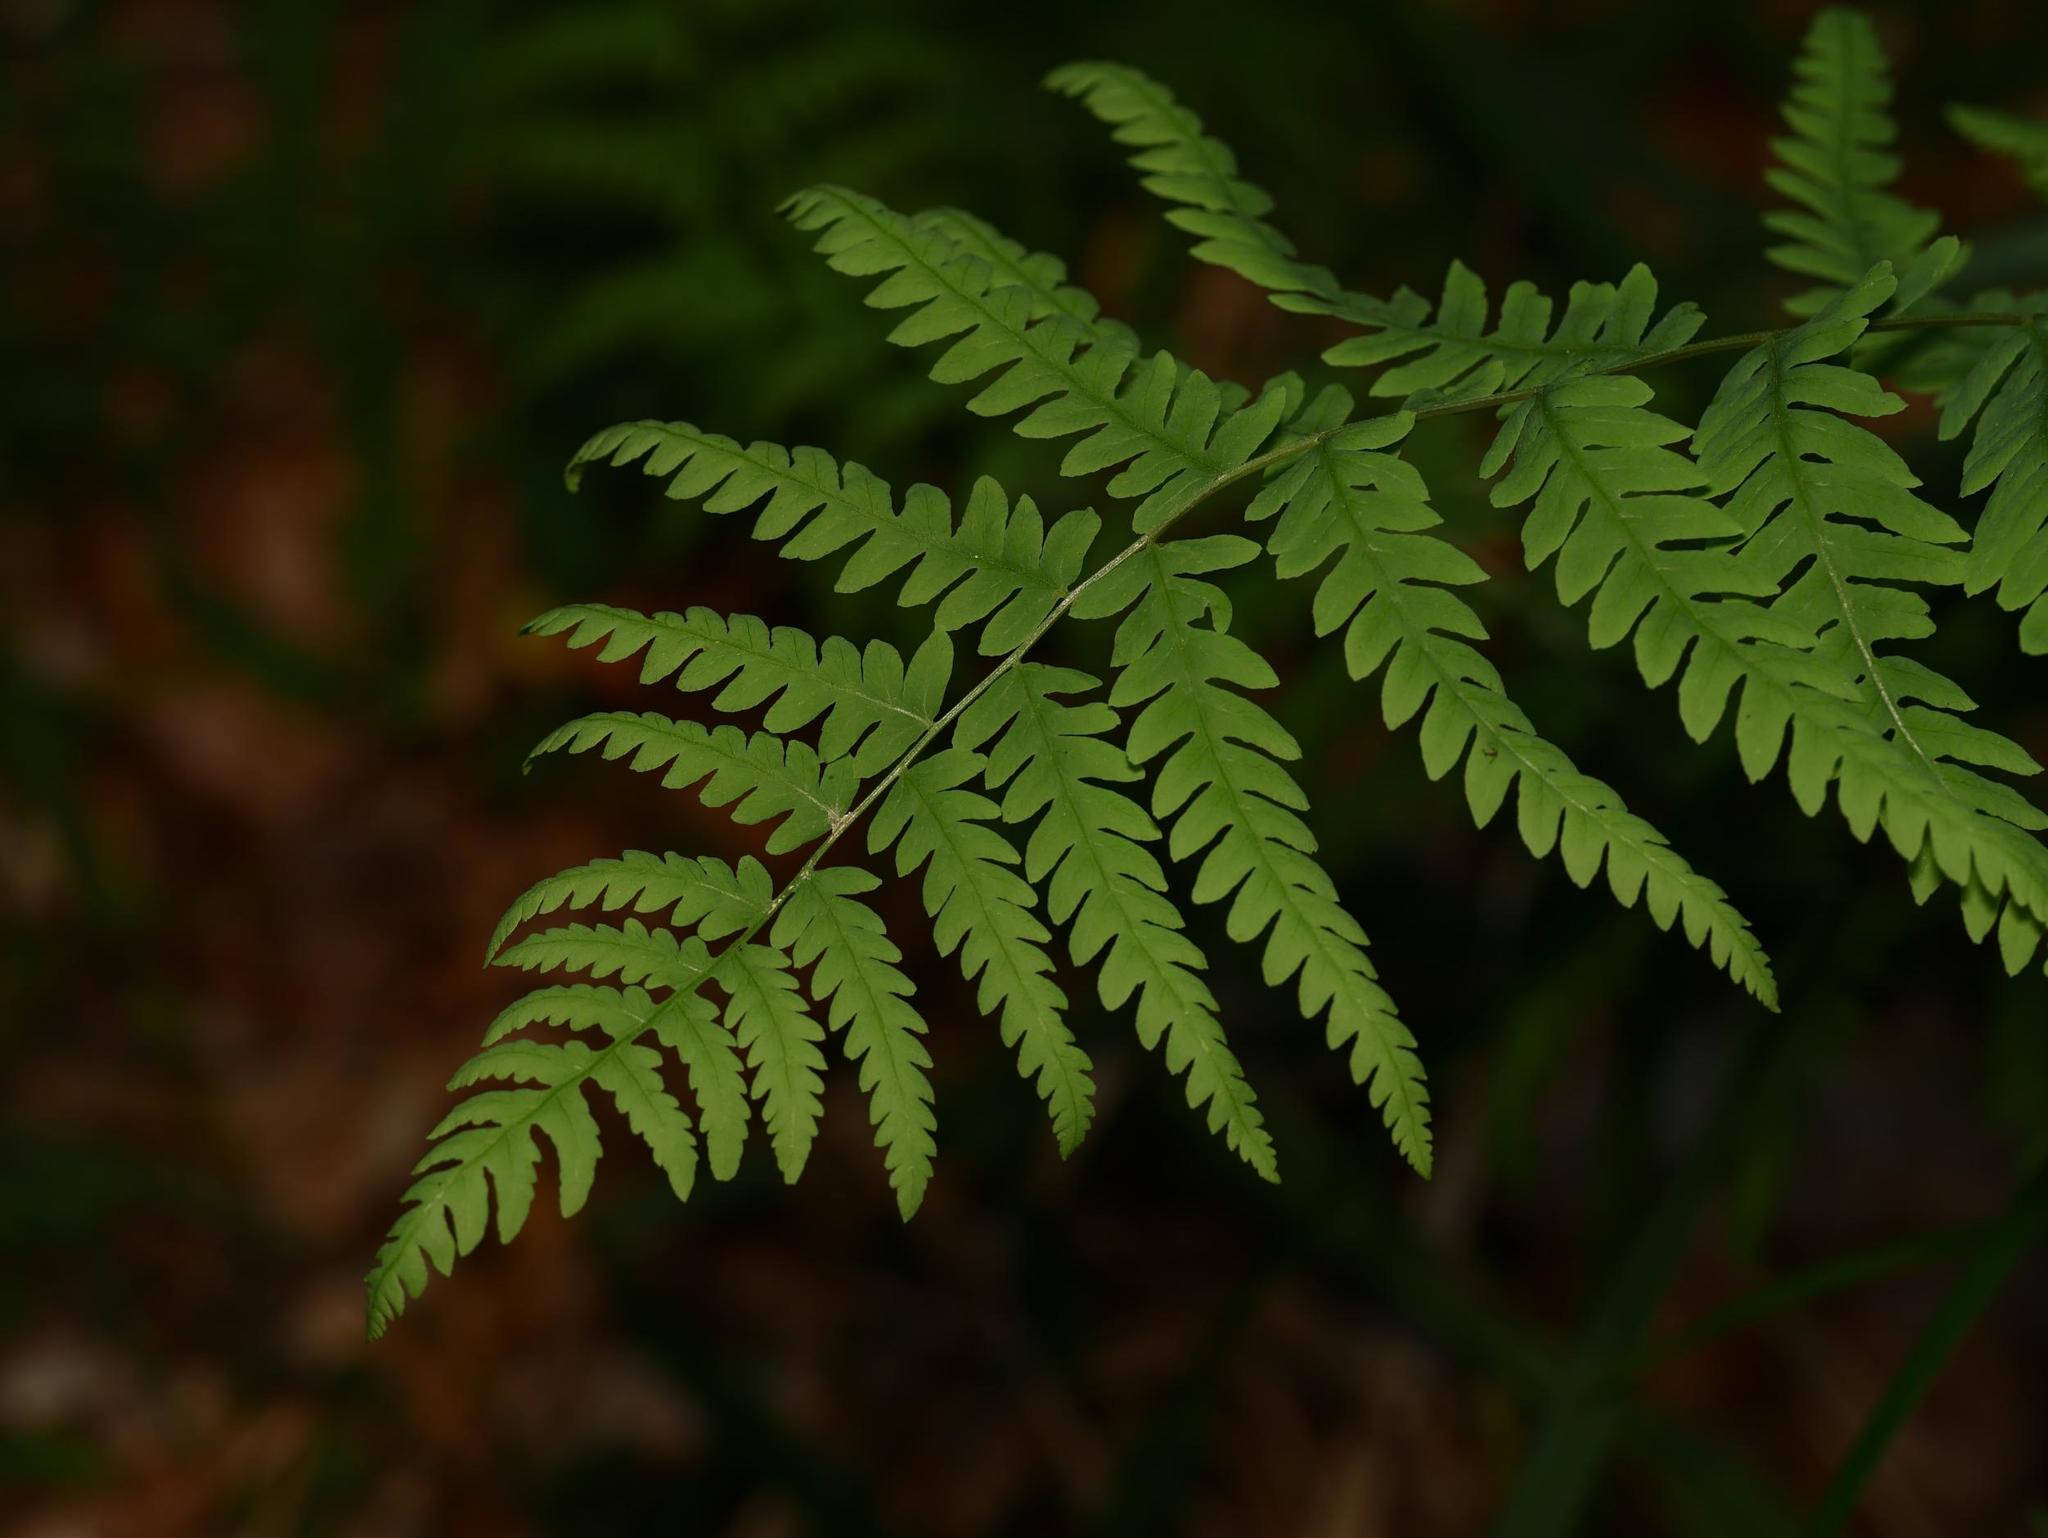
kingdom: Plantae
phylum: Tracheophyta
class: Polypodiopsida
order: Polypodiales
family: Thelypteridaceae
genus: Thelypteris
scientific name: Thelypteris palustris
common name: Marsh fern
